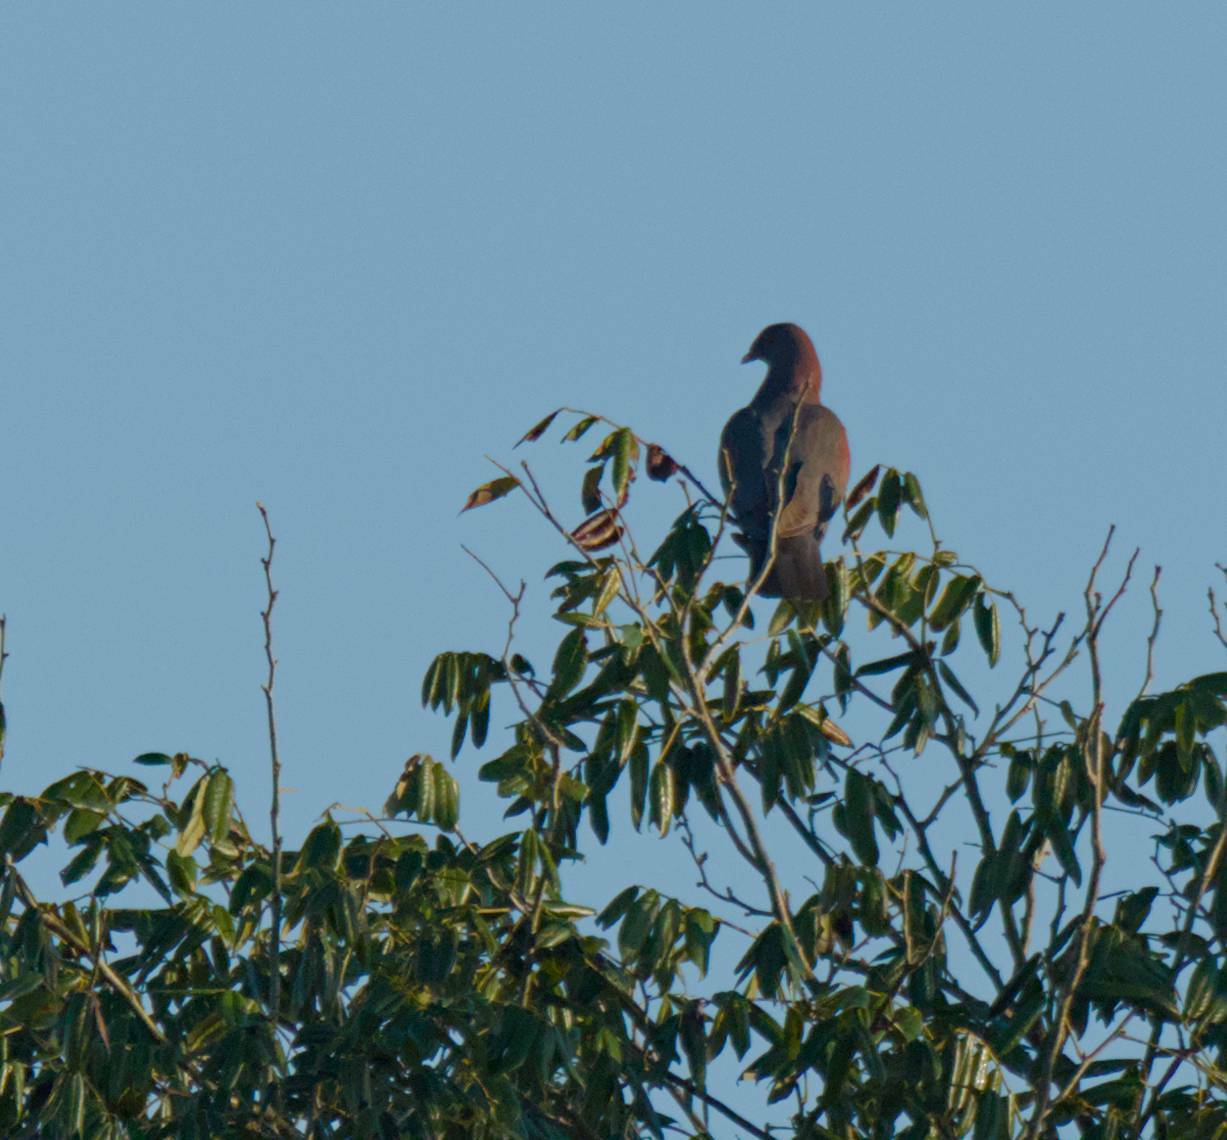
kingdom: Animalia
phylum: Chordata
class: Aves
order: Columbiformes
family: Columbidae
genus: Patagioenas
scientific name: Patagioenas flavirostris
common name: Red-billed pigeon
